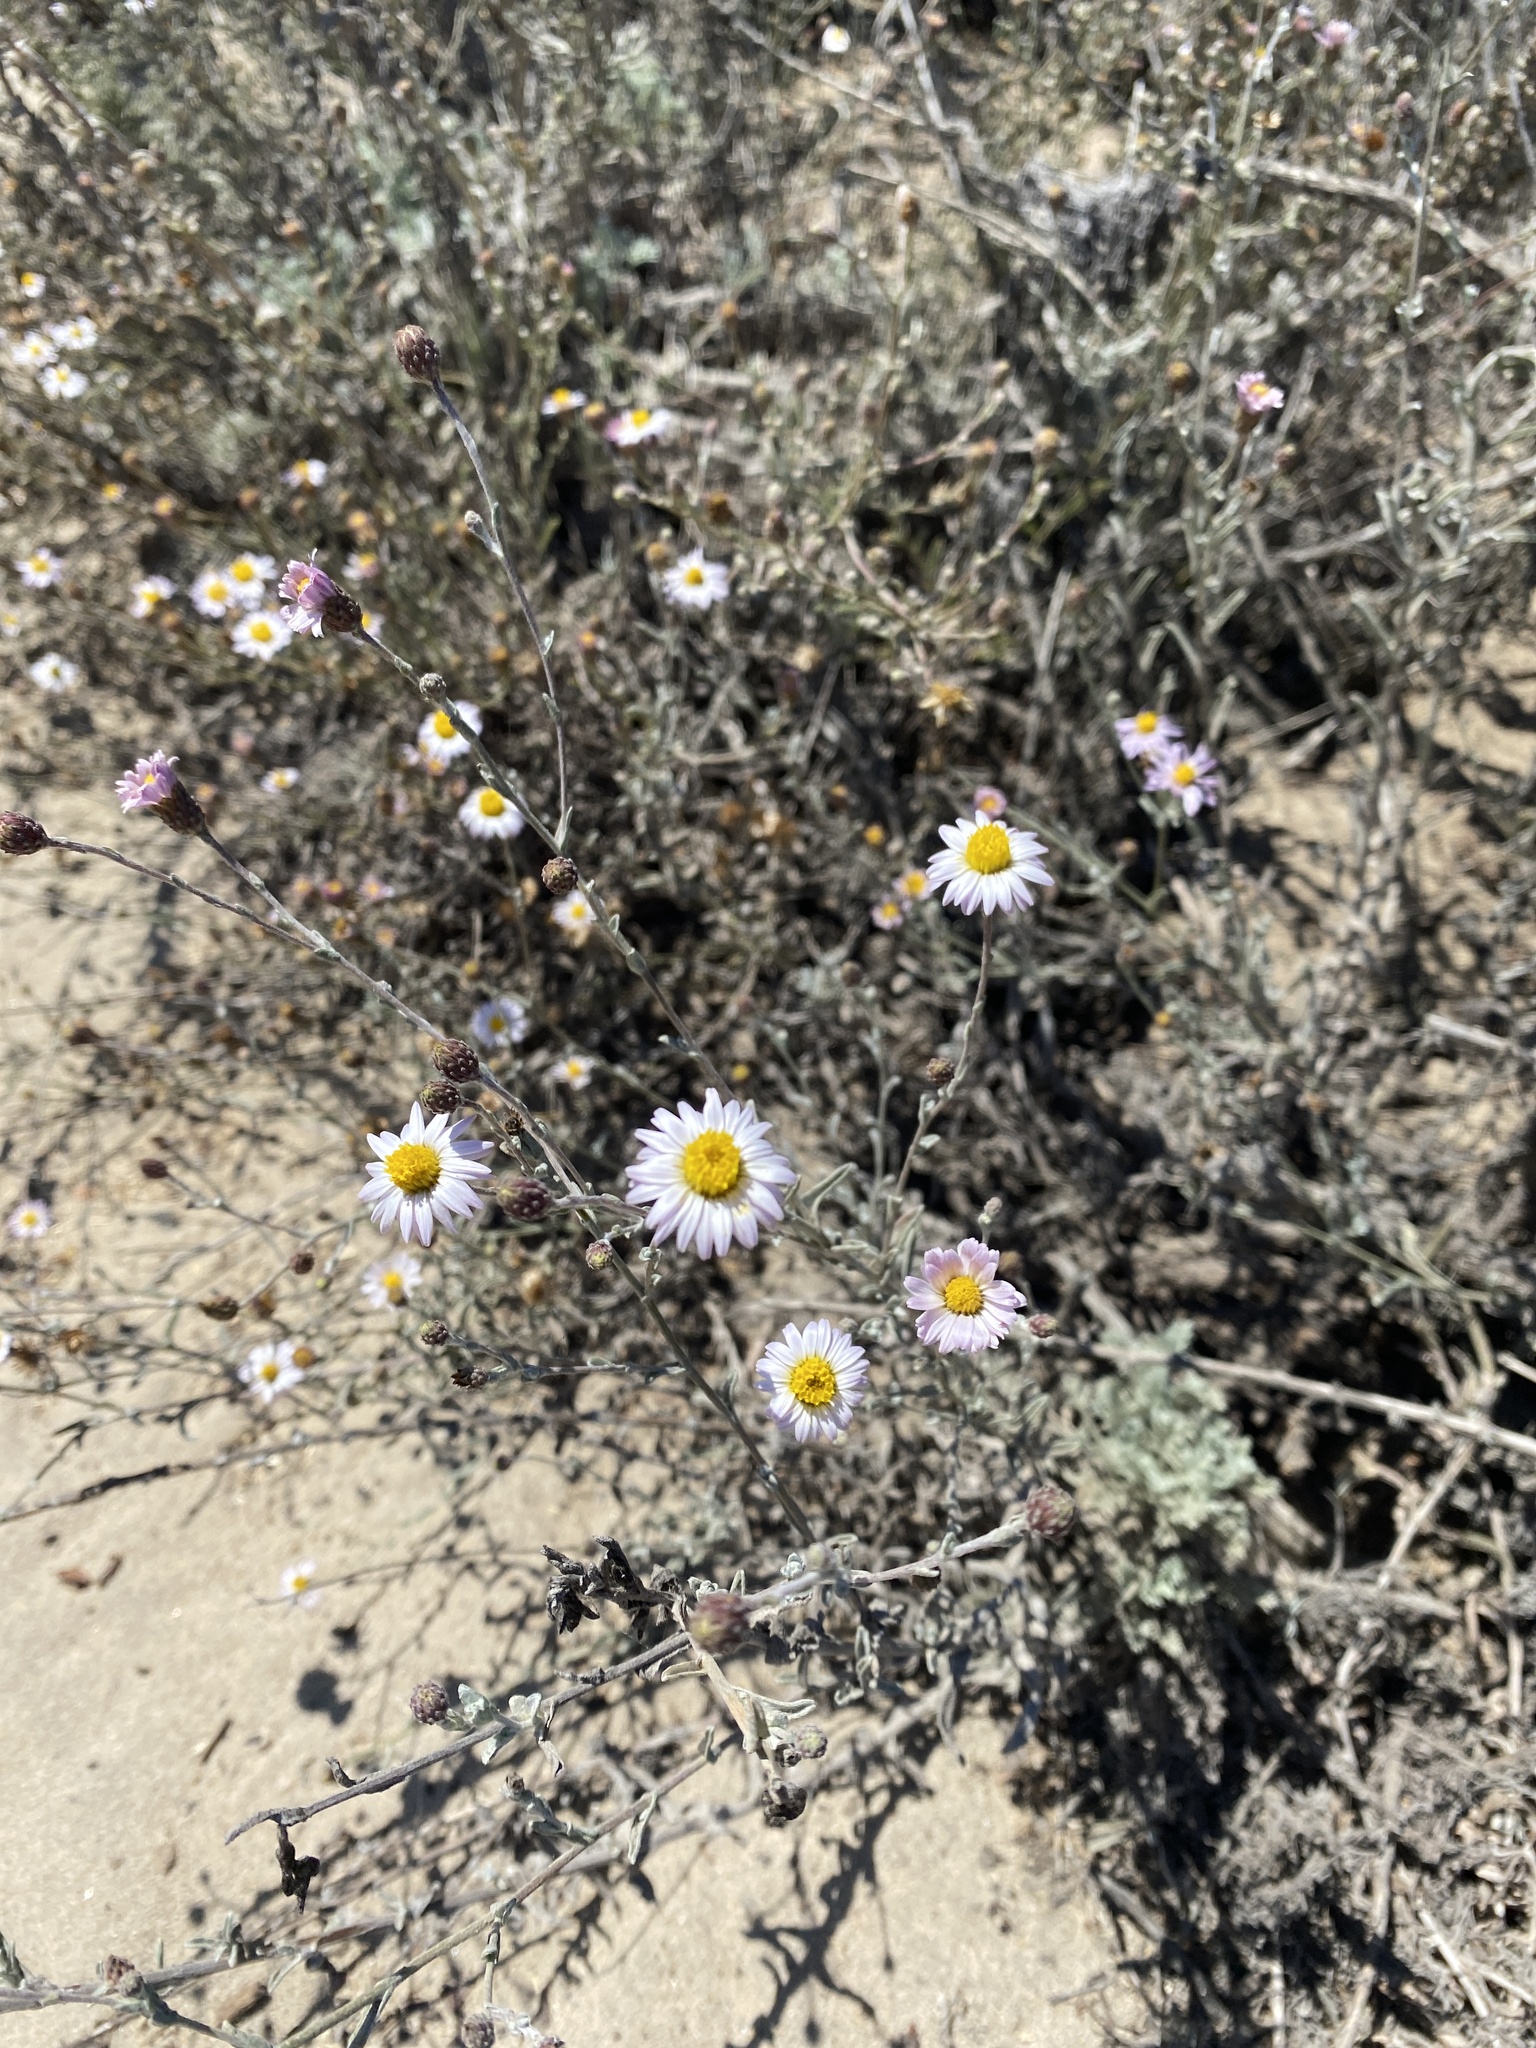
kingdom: Plantae
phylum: Tracheophyta
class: Magnoliopsida
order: Asterales
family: Asteraceae
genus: Corethrogyne
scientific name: Corethrogyne filaginifolia
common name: Sand-aster
